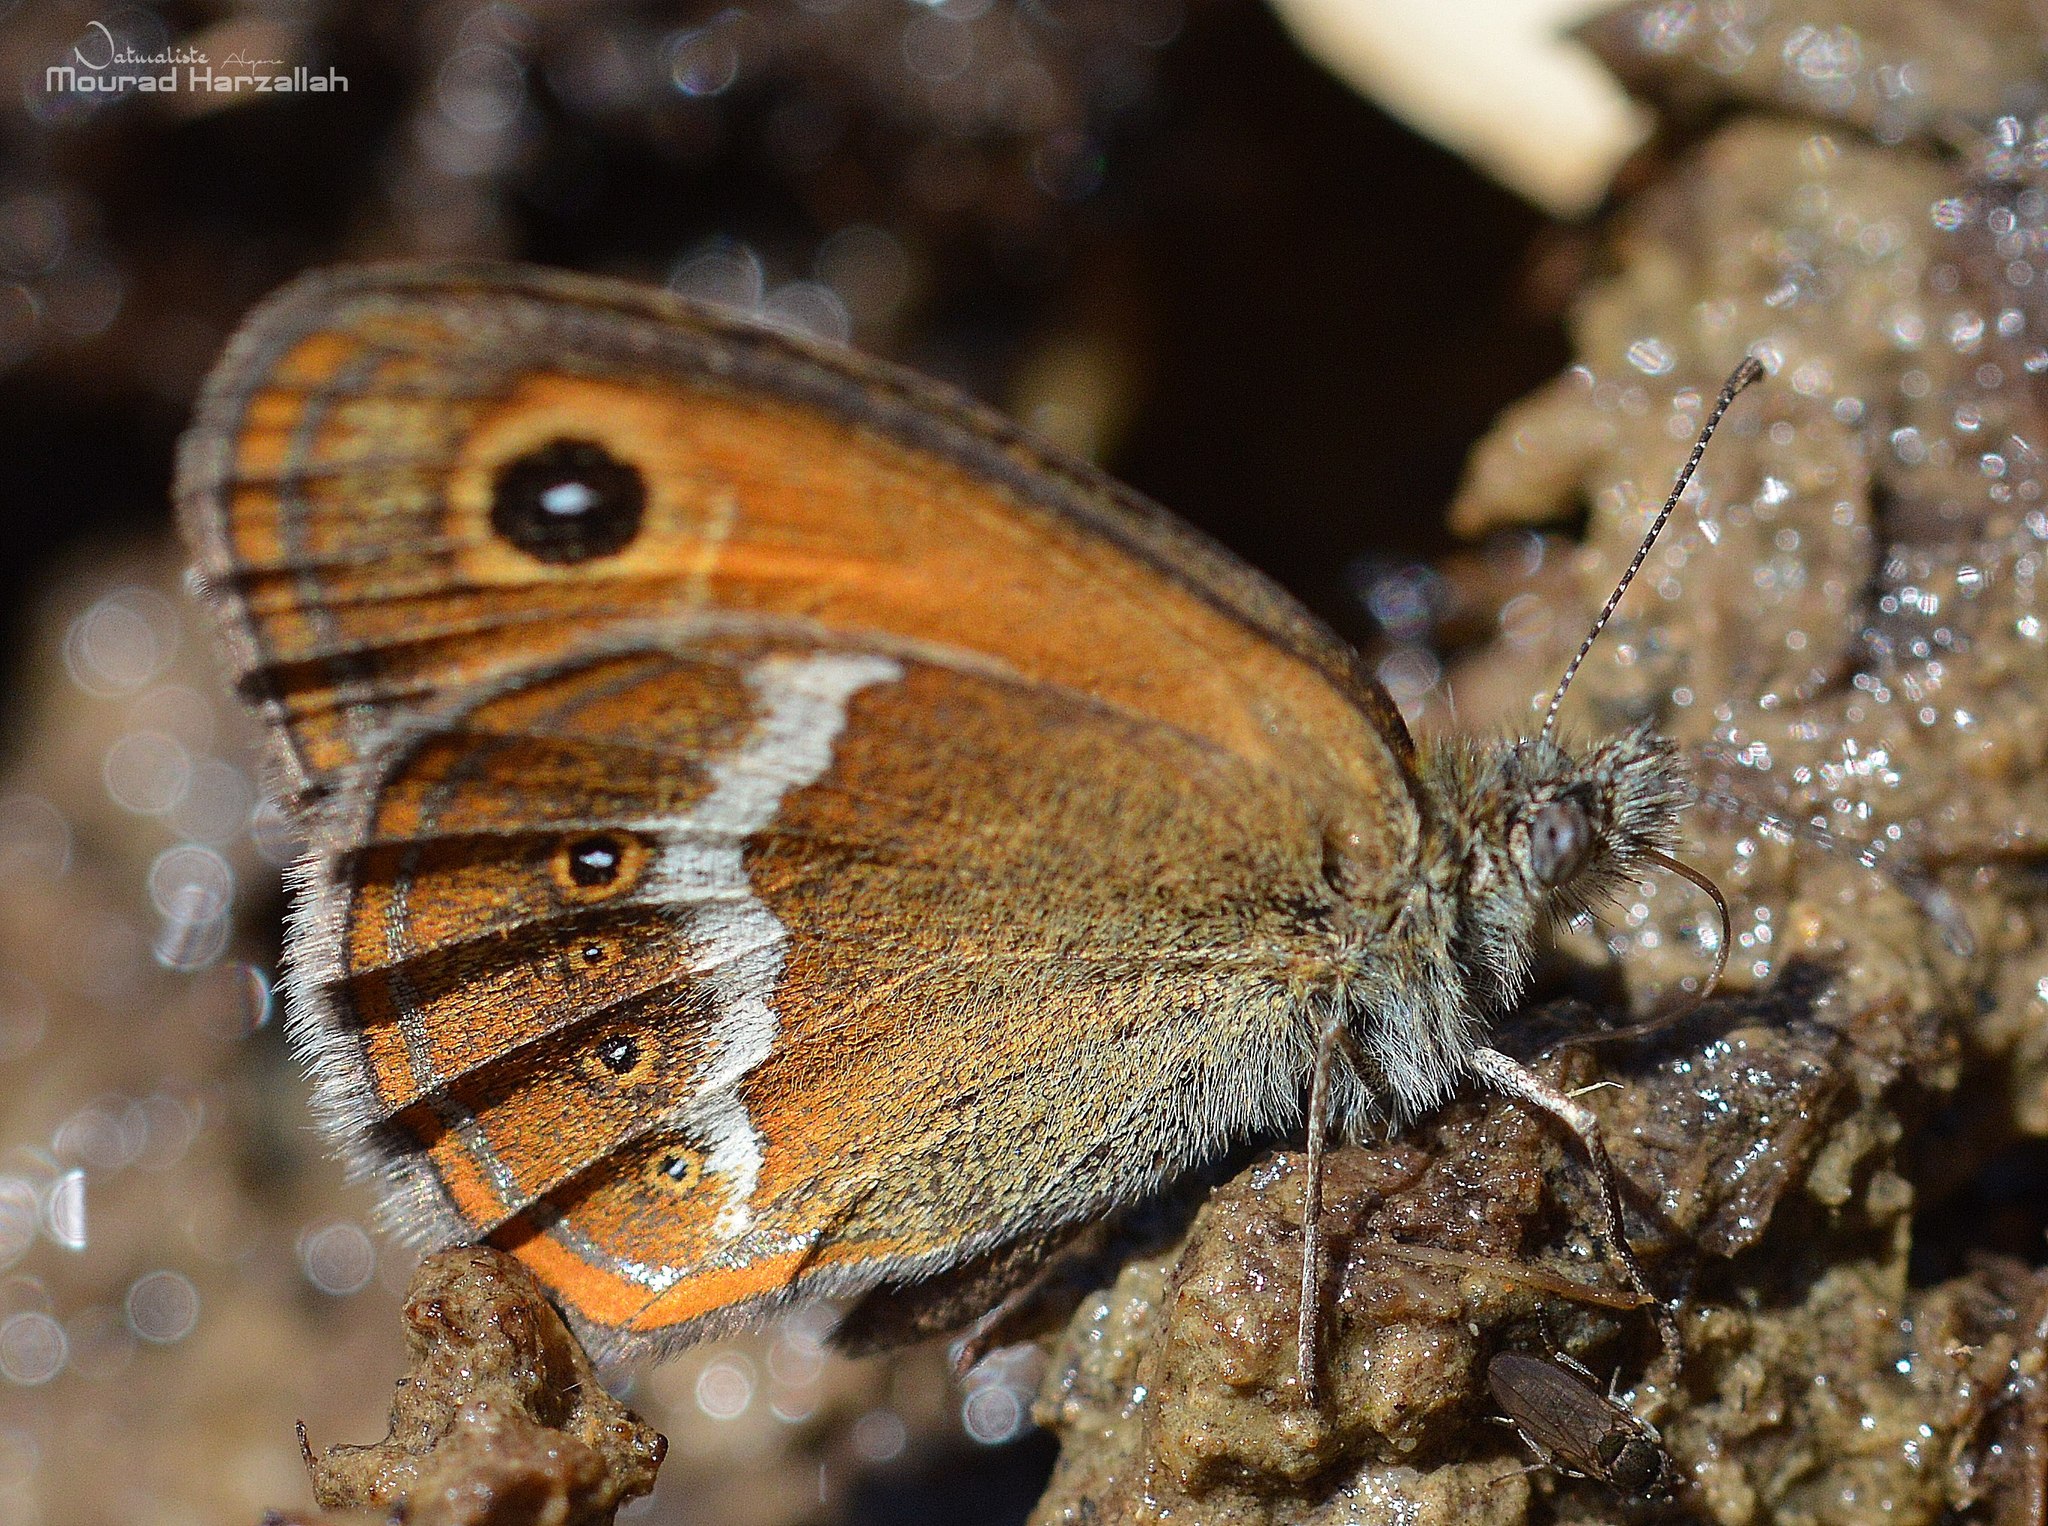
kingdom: Animalia
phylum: Arthropoda
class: Insecta
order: Lepidoptera
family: Nymphalidae
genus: Coenonympha
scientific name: Coenonympha arcanioides
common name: Moroccan pearly heath
